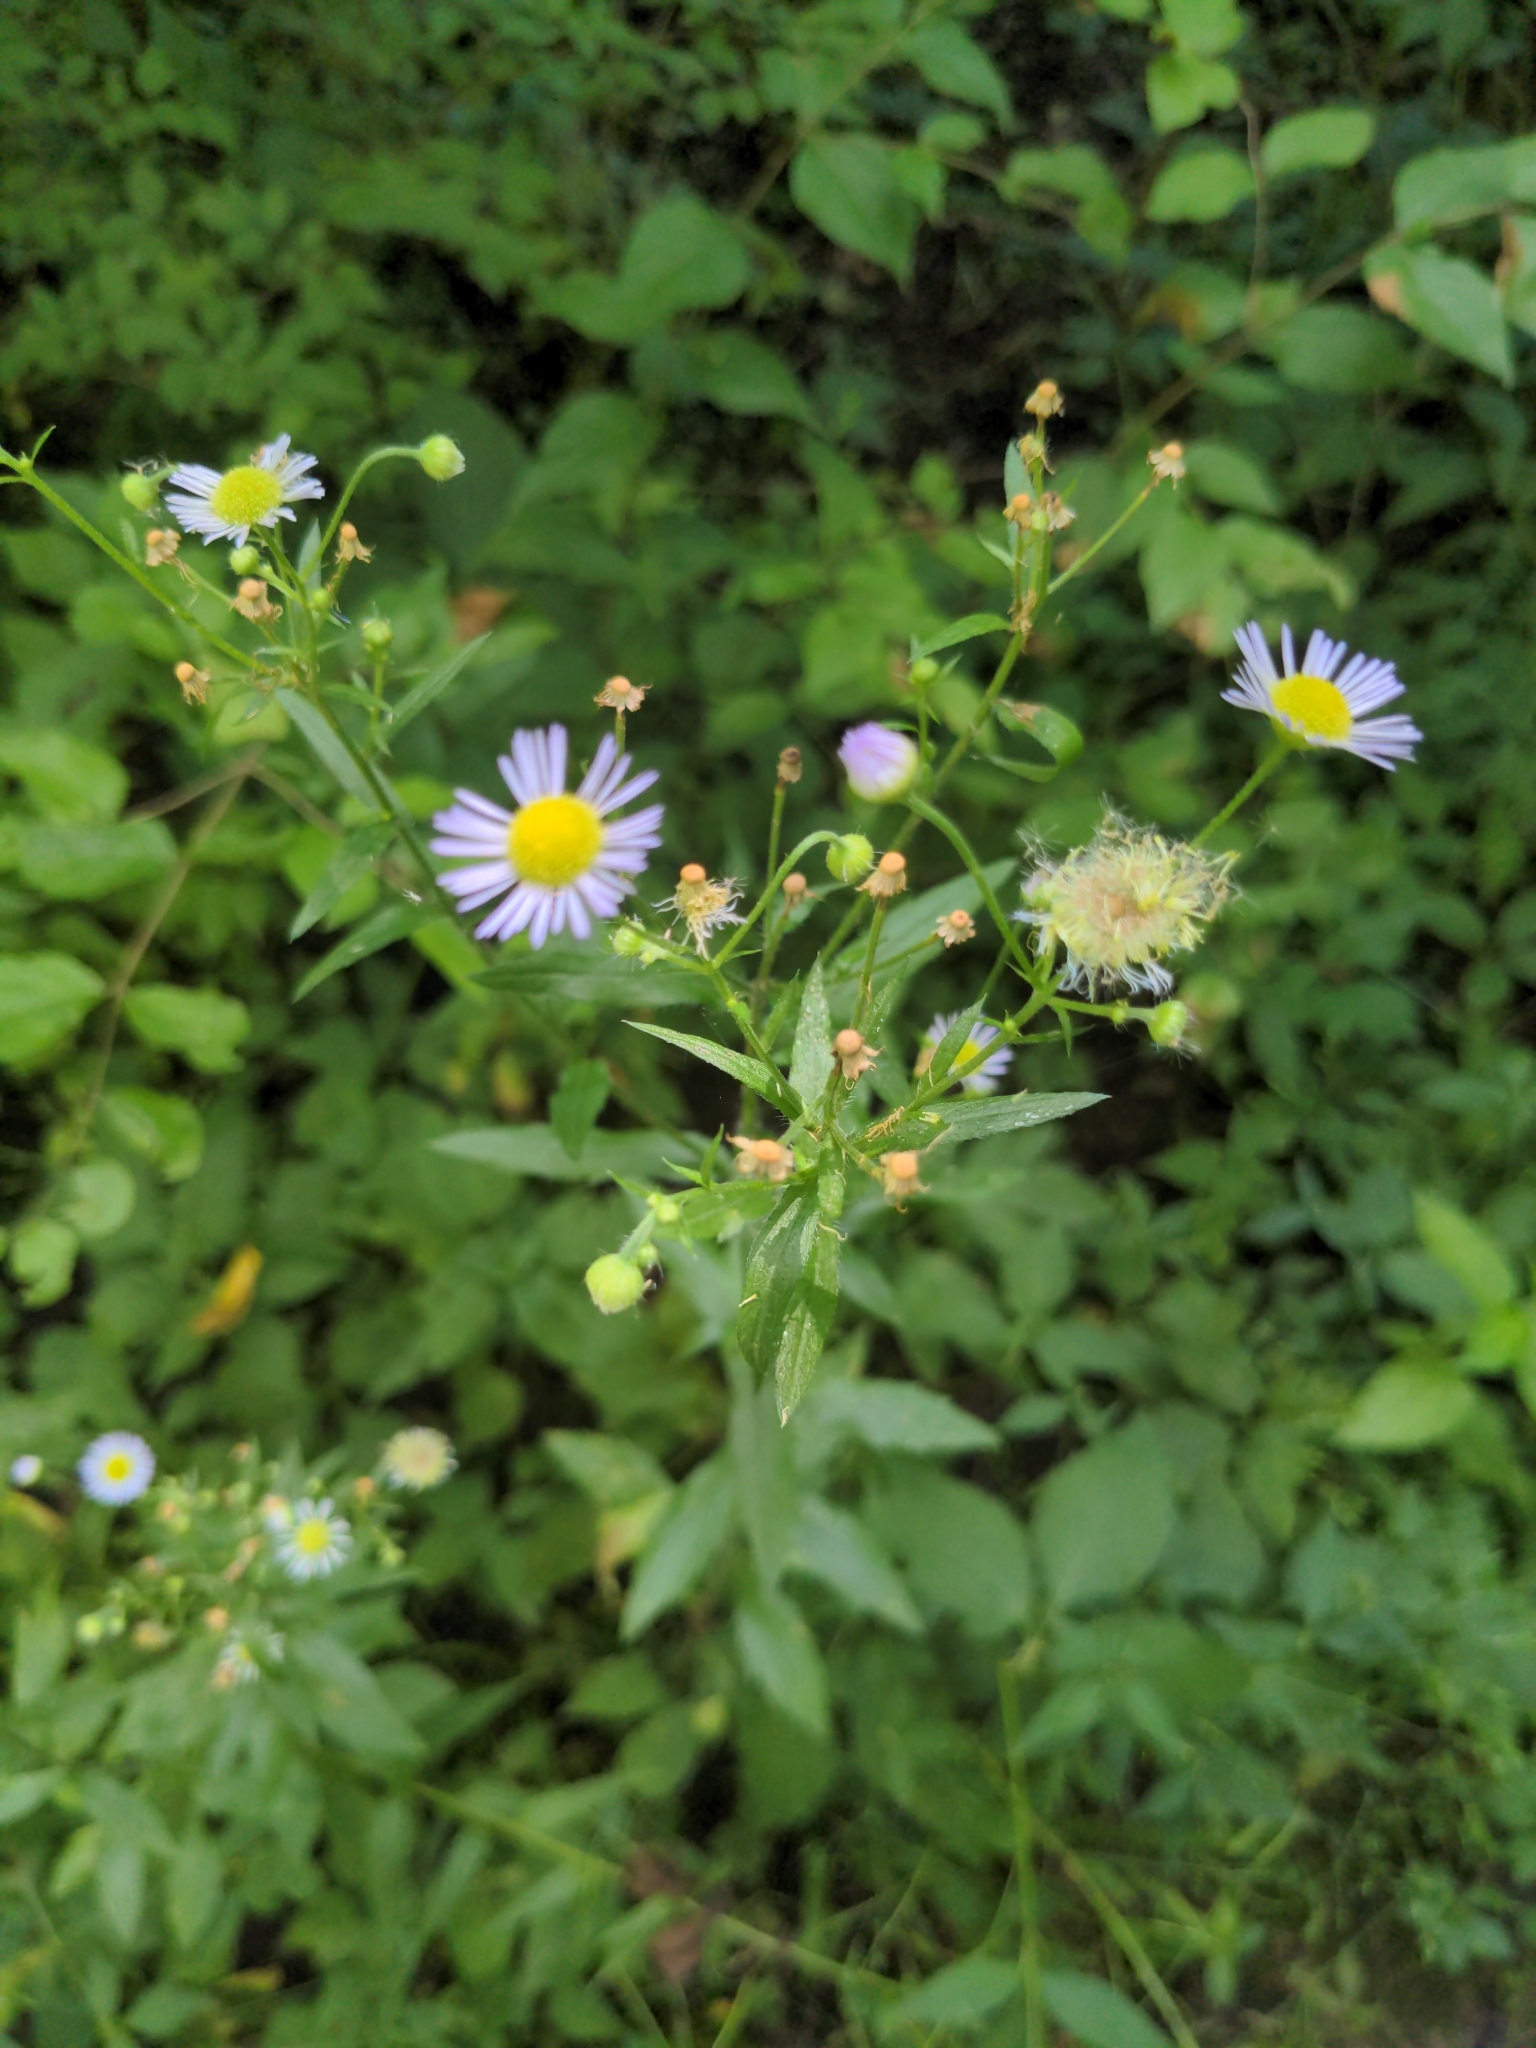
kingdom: Plantae
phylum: Tracheophyta
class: Magnoliopsida
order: Asterales
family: Asteraceae
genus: Erigeron
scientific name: Erigeron annuus
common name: Tall fleabane
